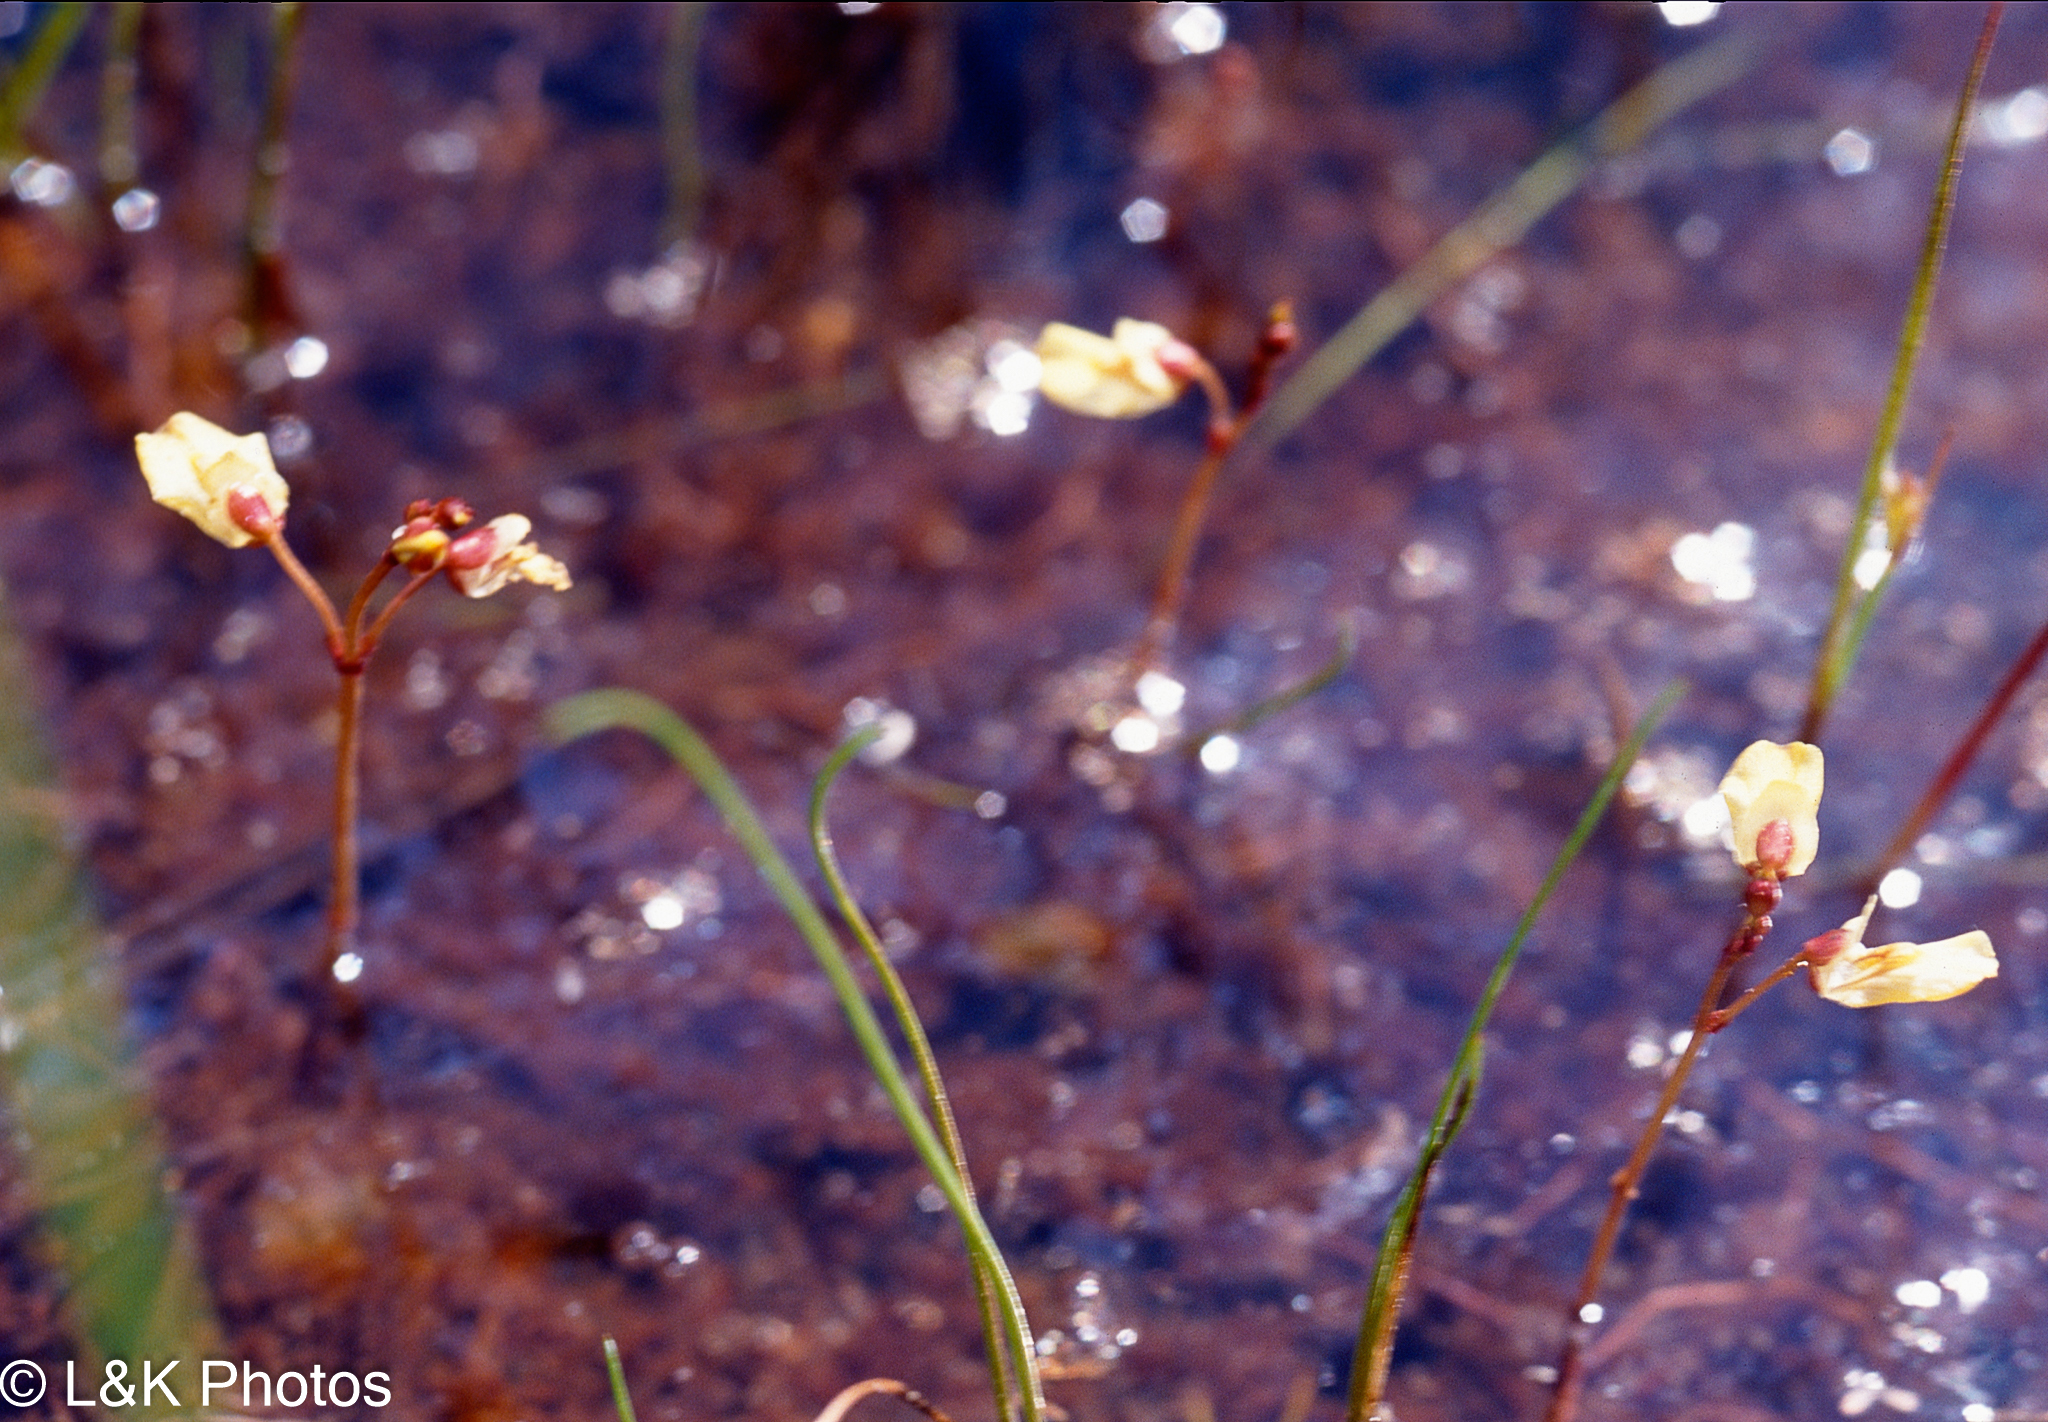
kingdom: Plantae
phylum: Tracheophyta
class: Magnoliopsida
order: Lamiales
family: Lentibulariaceae
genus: Utricularia
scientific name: Utricularia minor
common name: Lesser bladderwort
